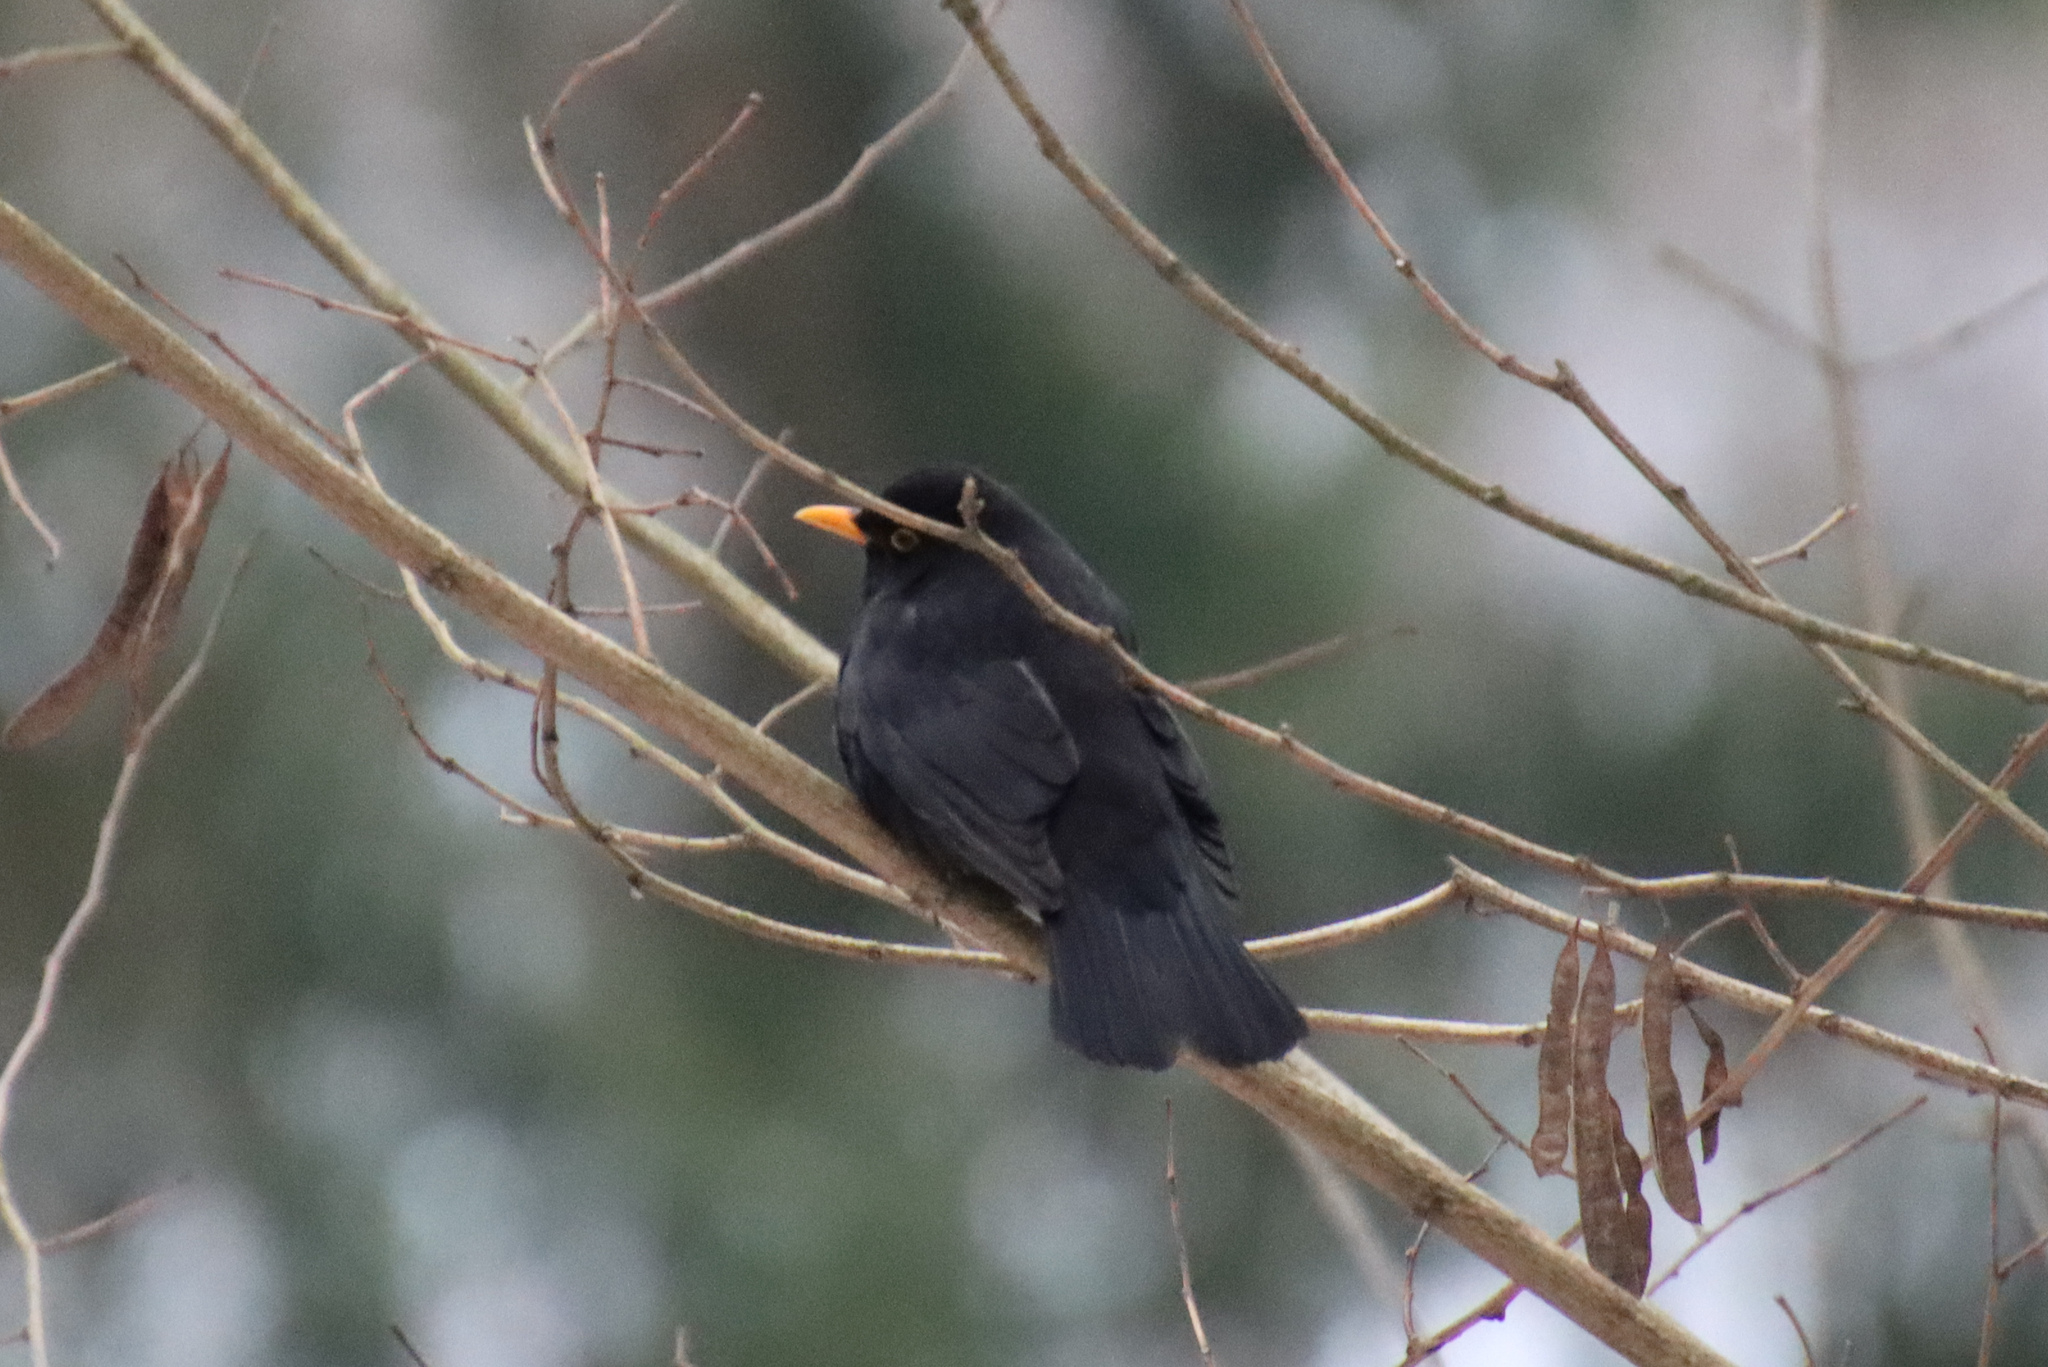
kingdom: Animalia
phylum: Chordata
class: Aves
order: Passeriformes
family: Turdidae
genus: Turdus
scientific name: Turdus merula
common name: Common blackbird
